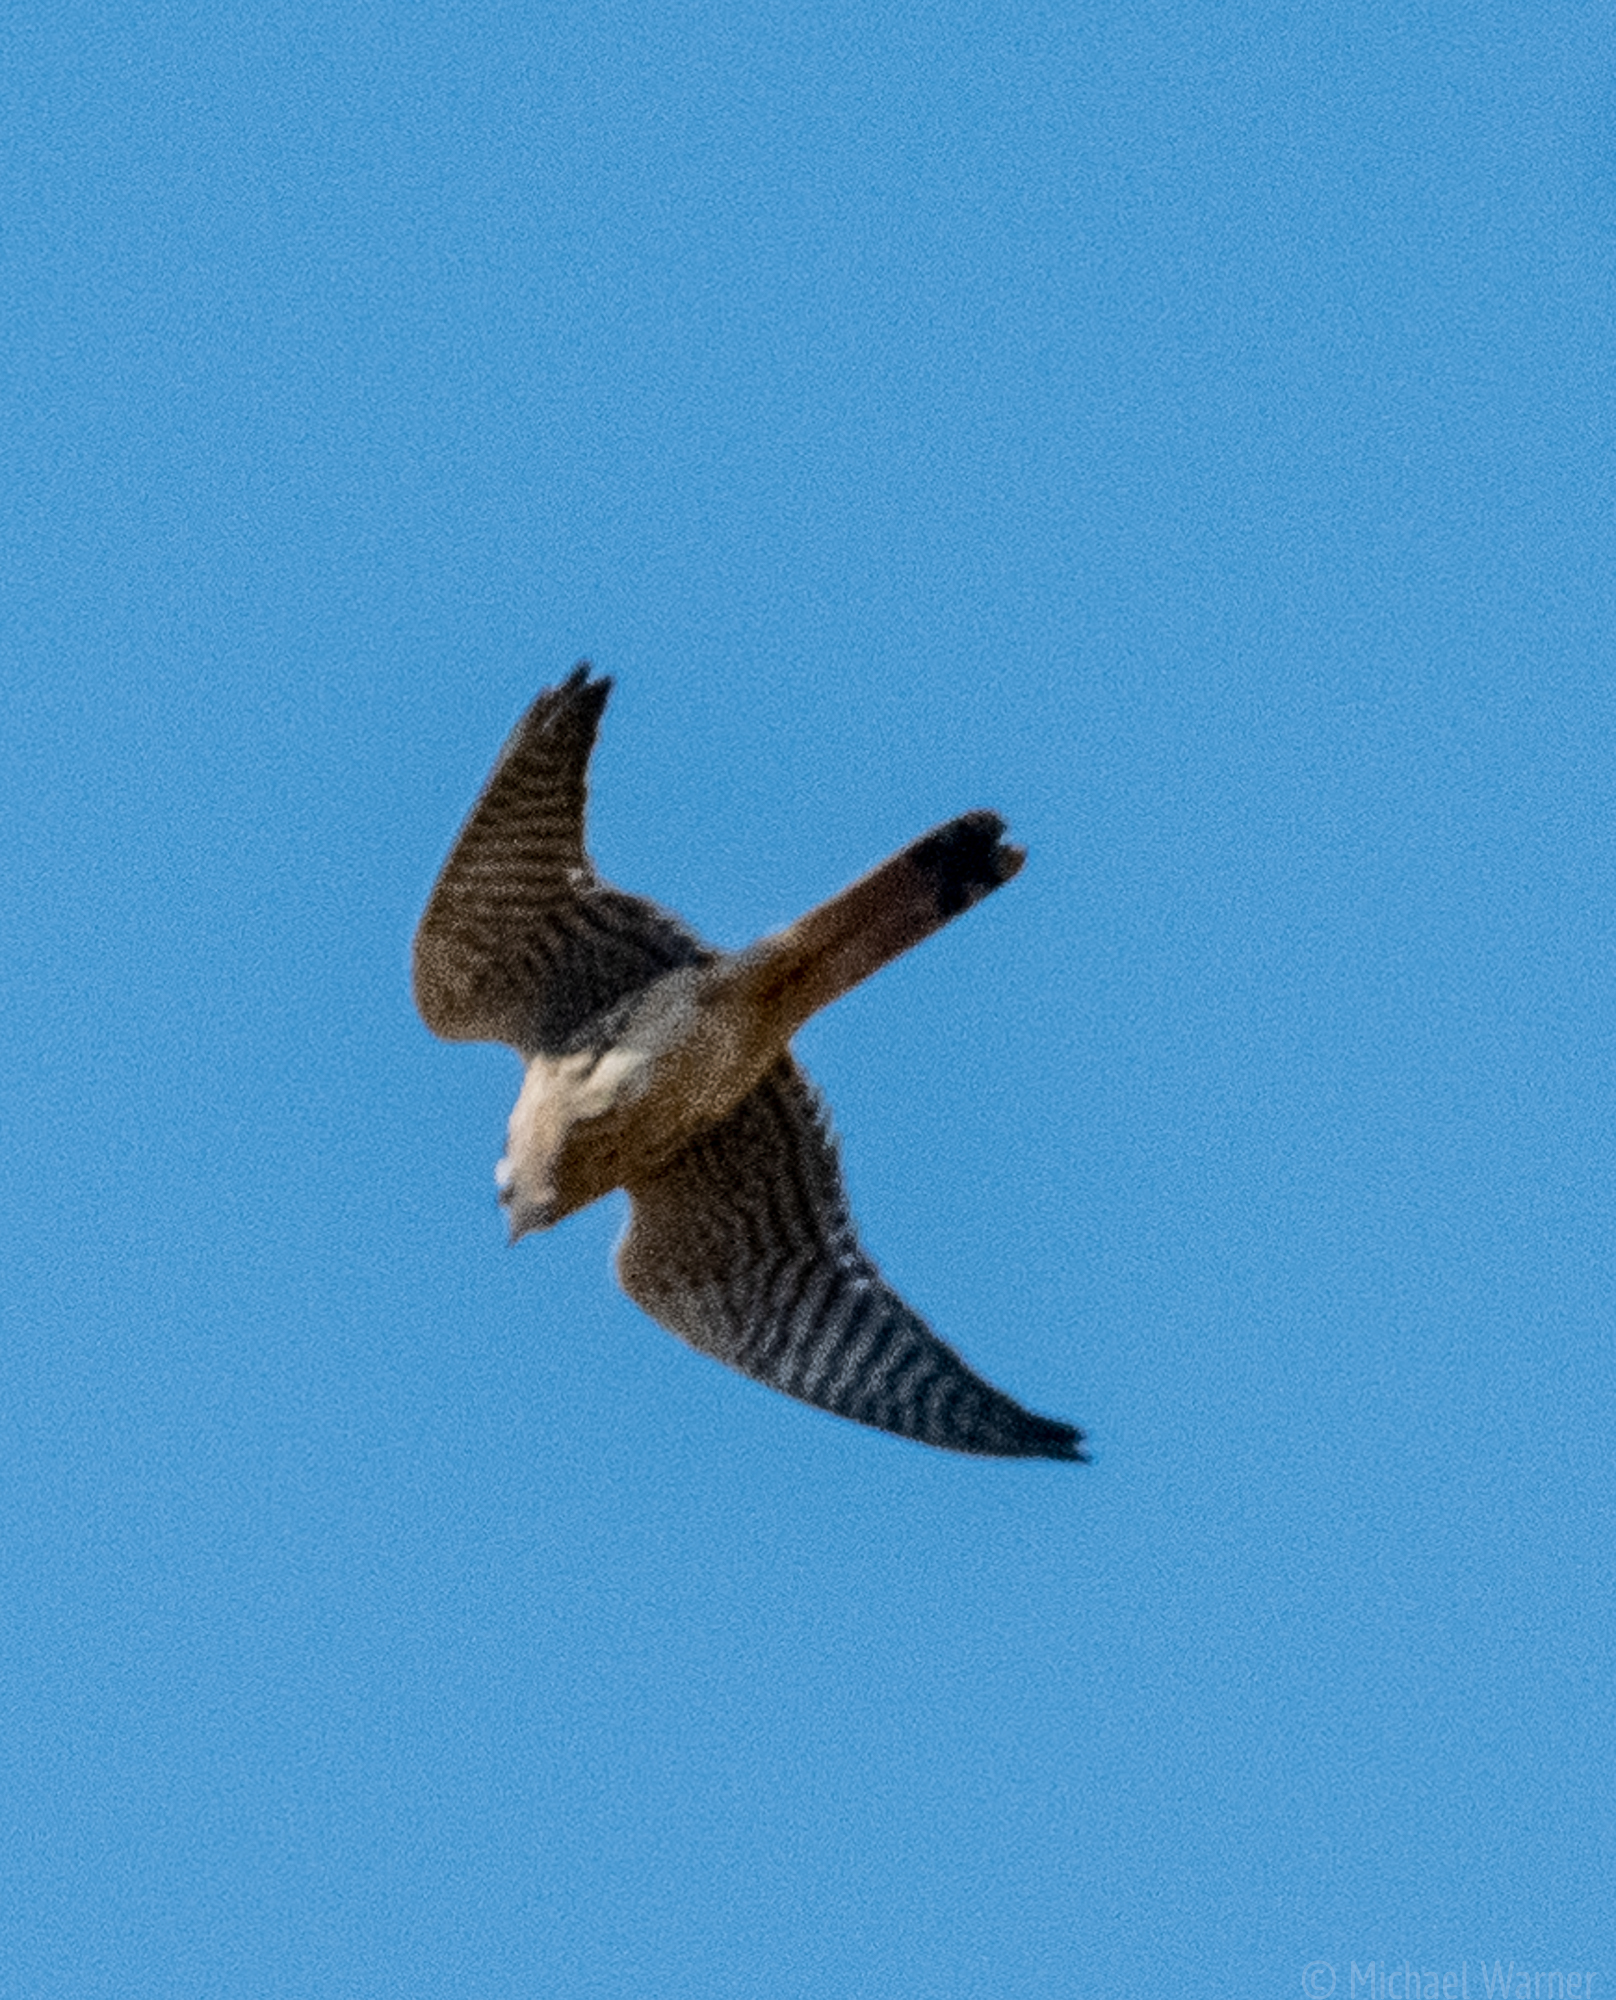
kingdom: Animalia
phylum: Chordata
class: Aves
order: Falconiformes
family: Falconidae
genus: Falco
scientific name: Falco sparverius
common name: American kestrel
